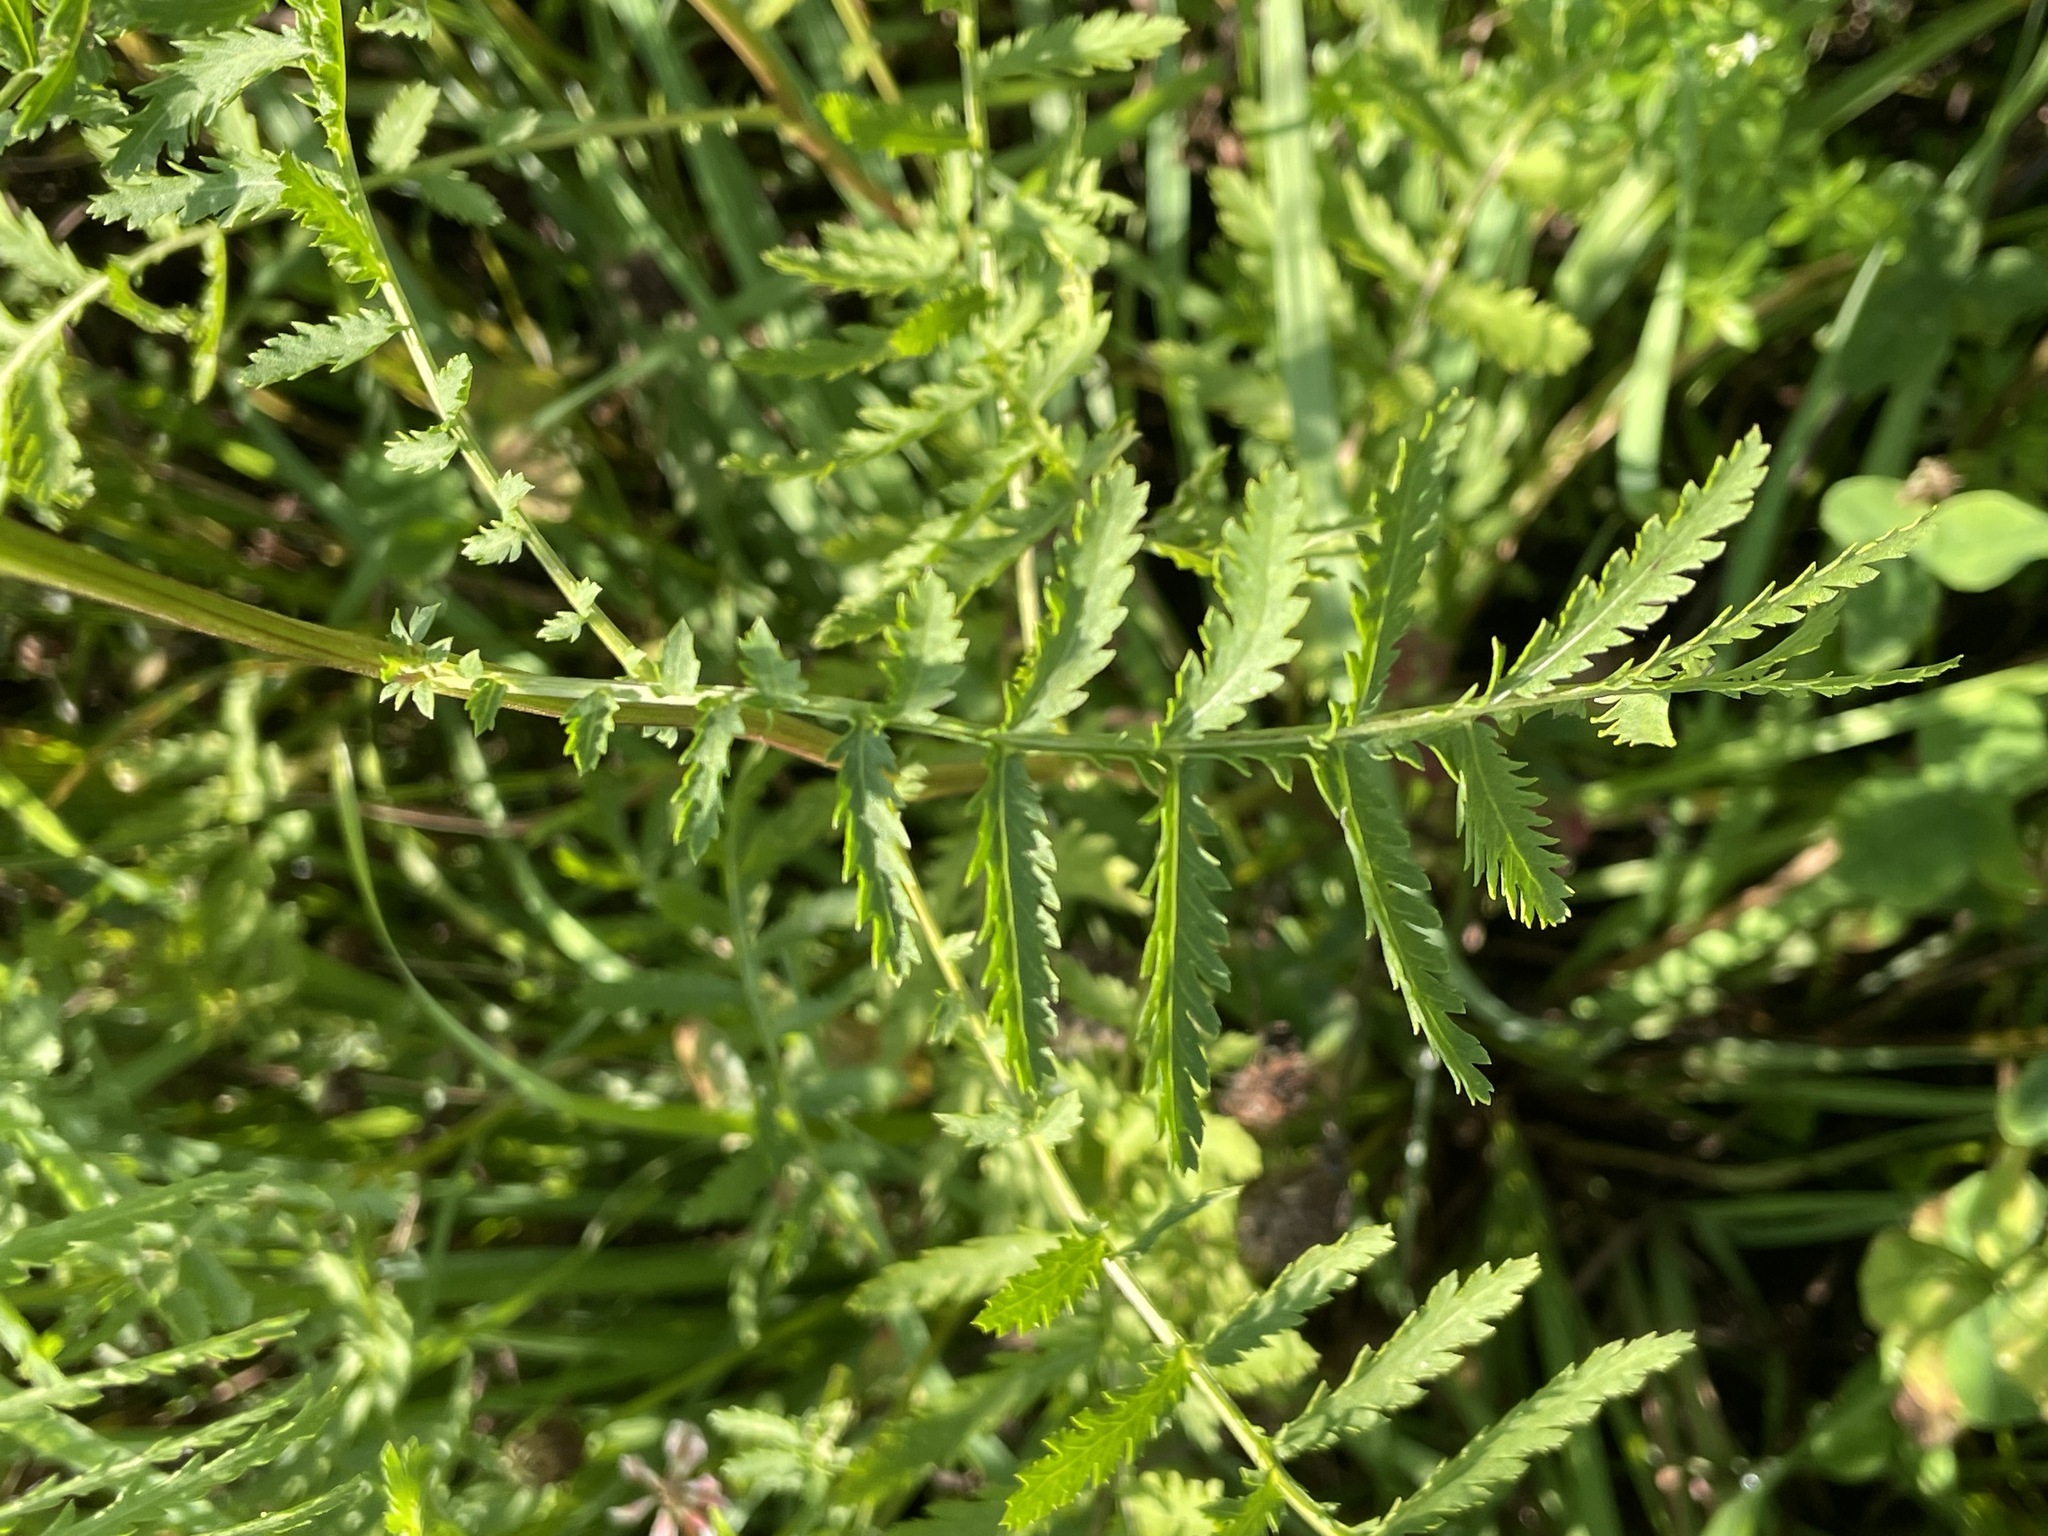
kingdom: Plantae
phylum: Tracheophyta
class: Magnoliopsida
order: Asterales
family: Asteraceae
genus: Tanacetum
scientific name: Tanacetum vulgare
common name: Common tansy
